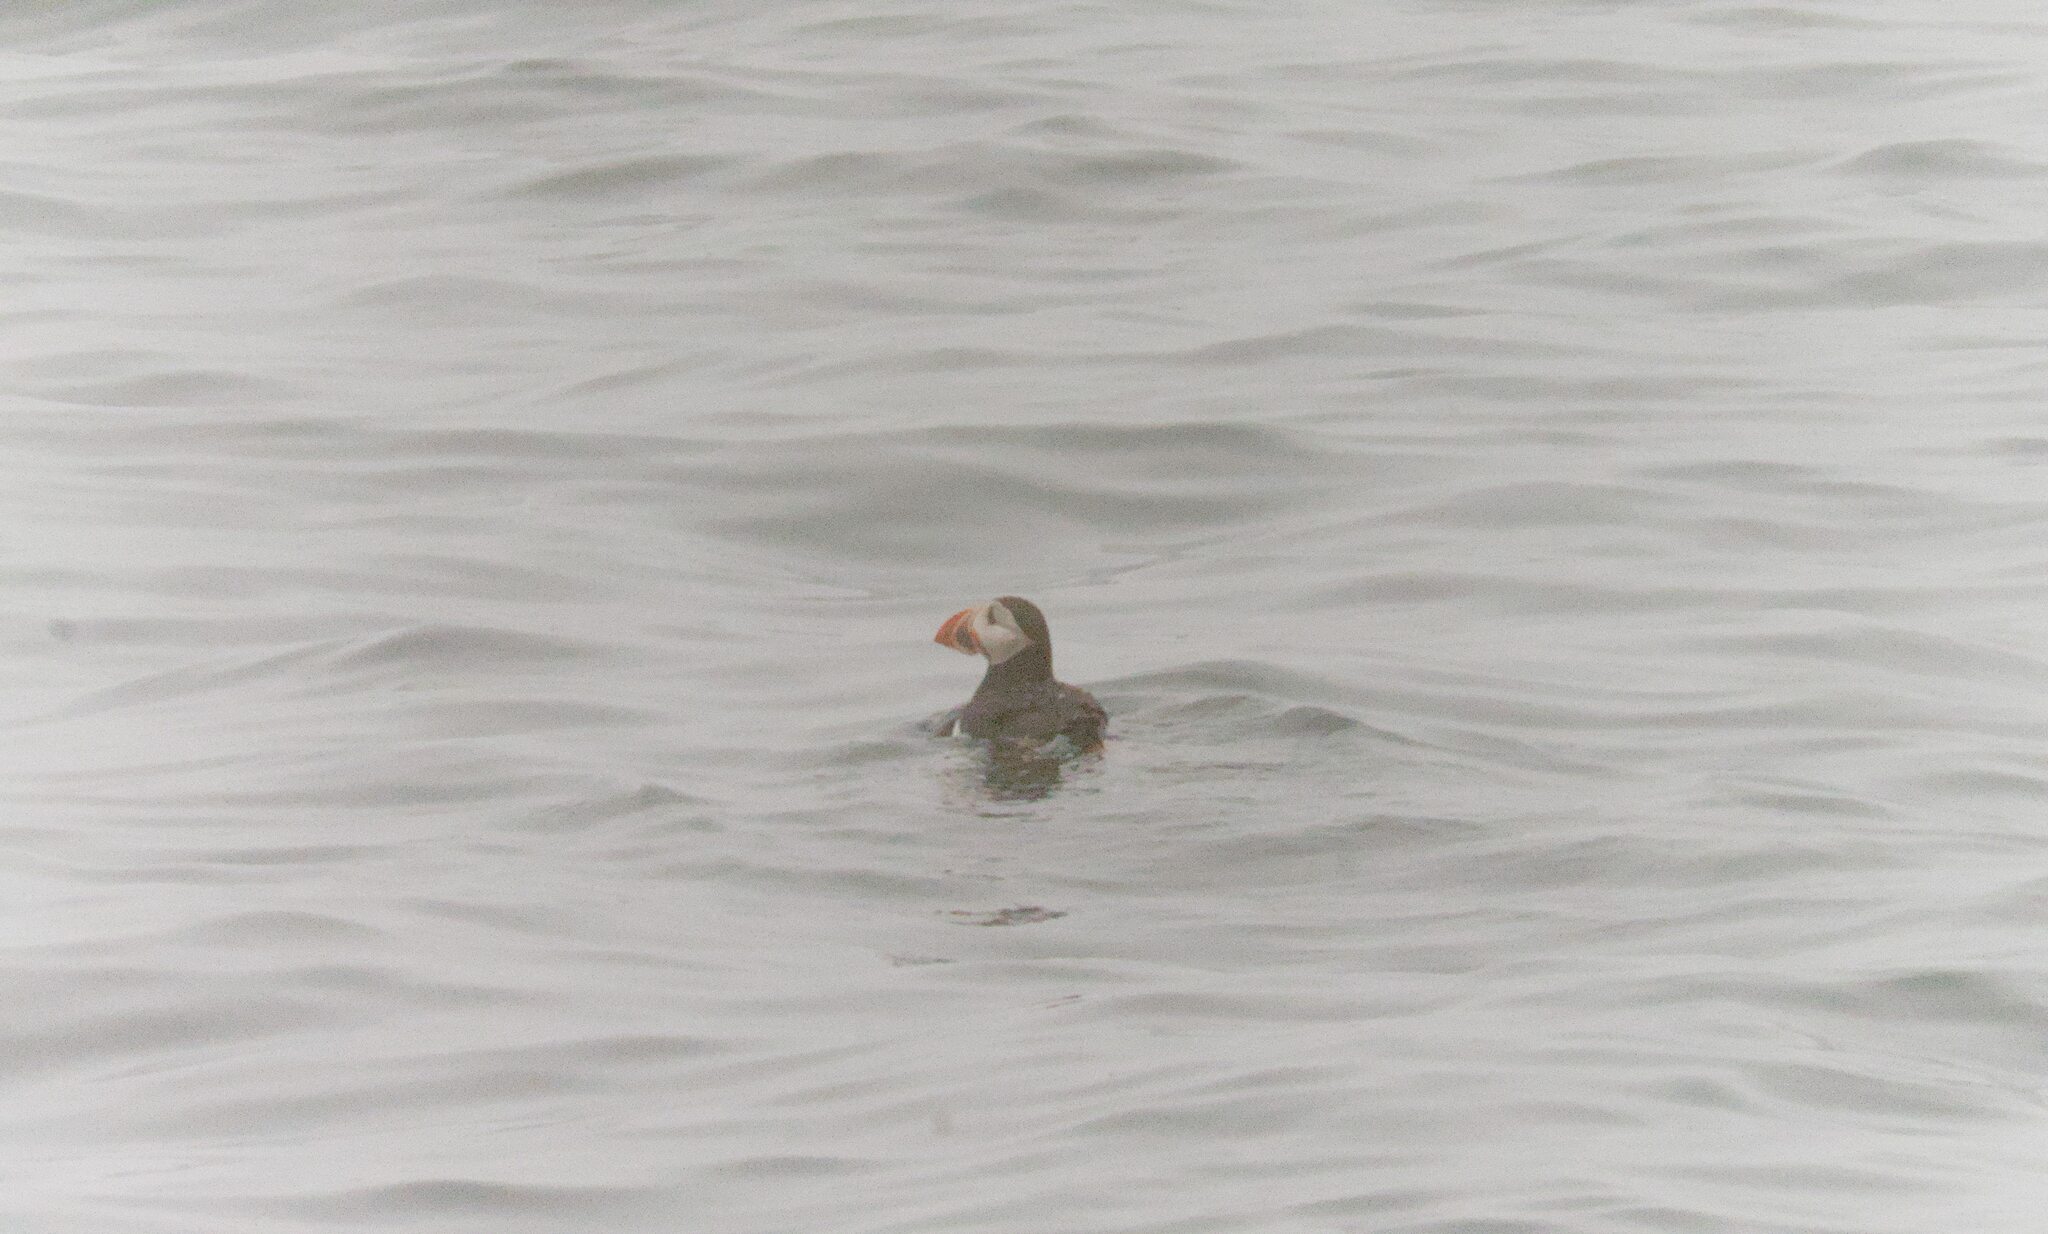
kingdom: Animalia
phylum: Chordata
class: Aves
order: Charadriiformes
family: Alcidae
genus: Fratercula
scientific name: Fratercula arctica
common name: Atlantic puffin
